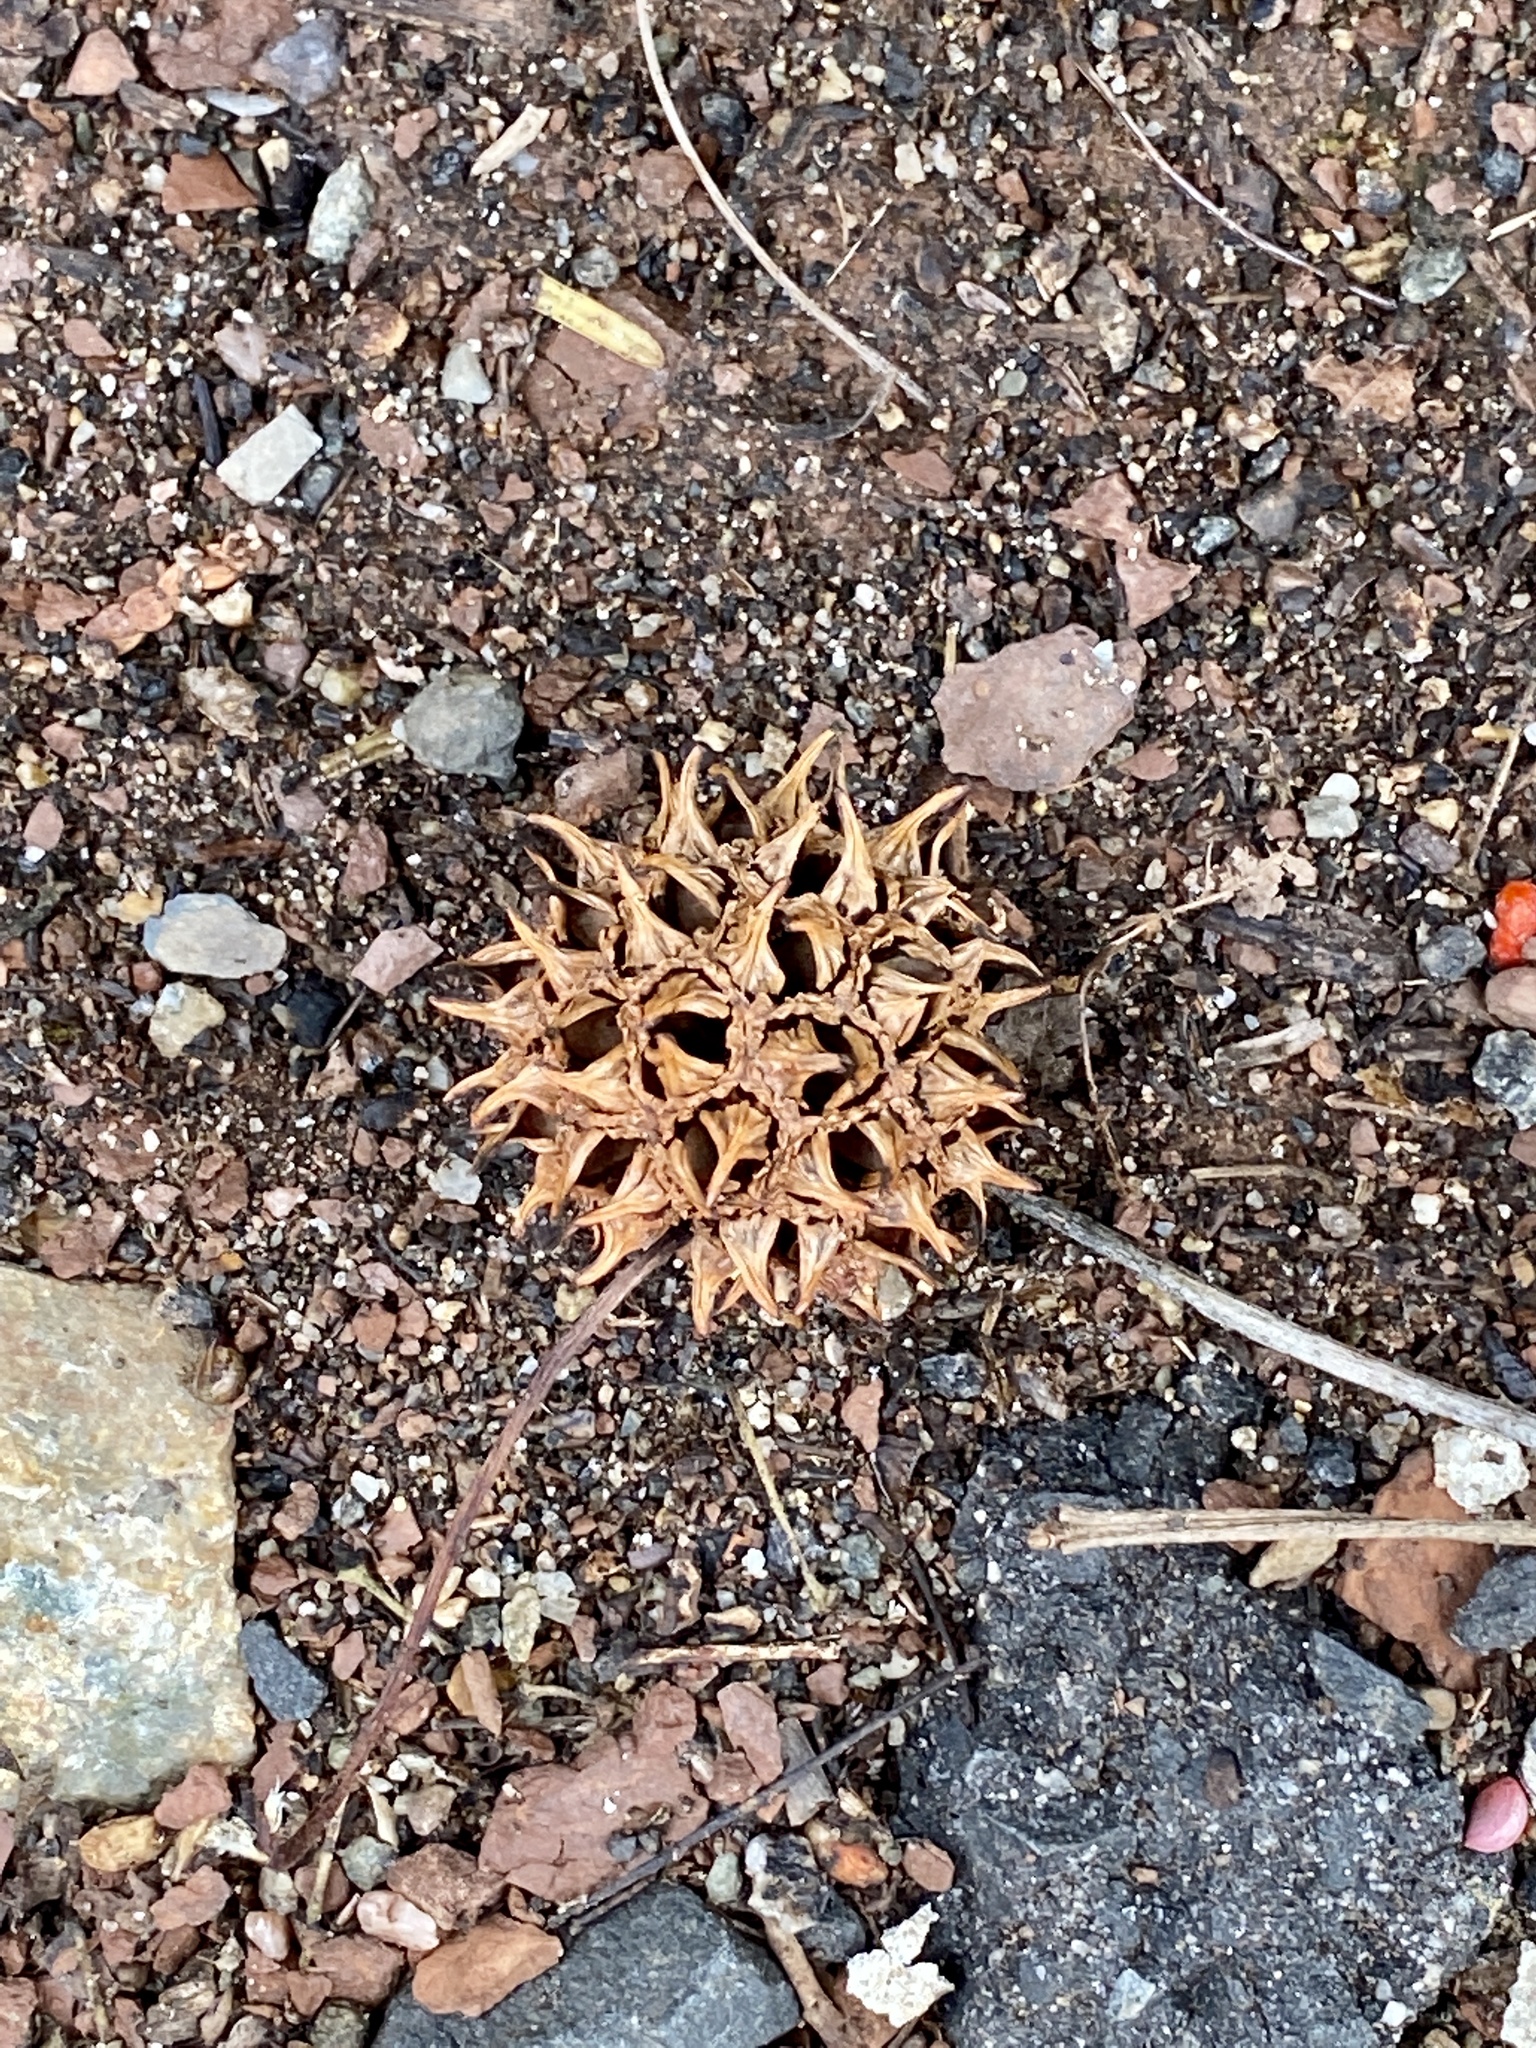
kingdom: Plantae
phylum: Tracheophyta
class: Magnoliopsida
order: Saxifragales
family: Altingiaceae
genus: Liquidambar
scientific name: Liquidambar styraciflua
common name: Sweet gum
